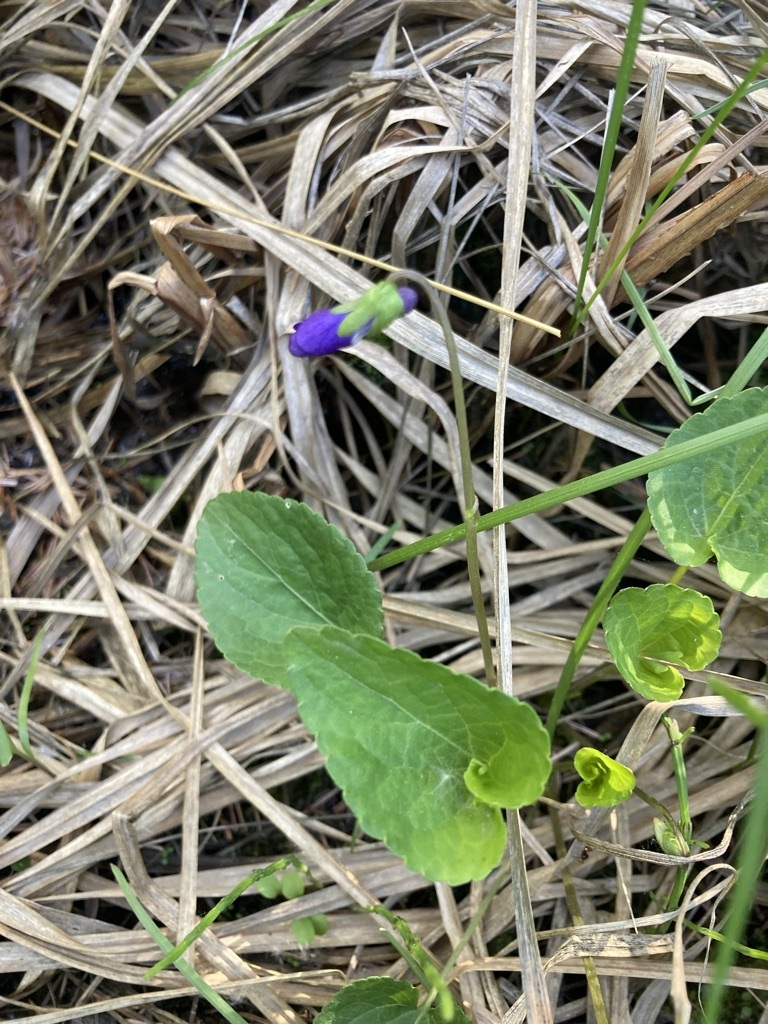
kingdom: Plantae
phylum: Tracheophyta
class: Magnoliopsida
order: Malpighiales
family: Violaceae
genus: Viola
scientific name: Viola nephrophylla
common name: Blue meadow violet
